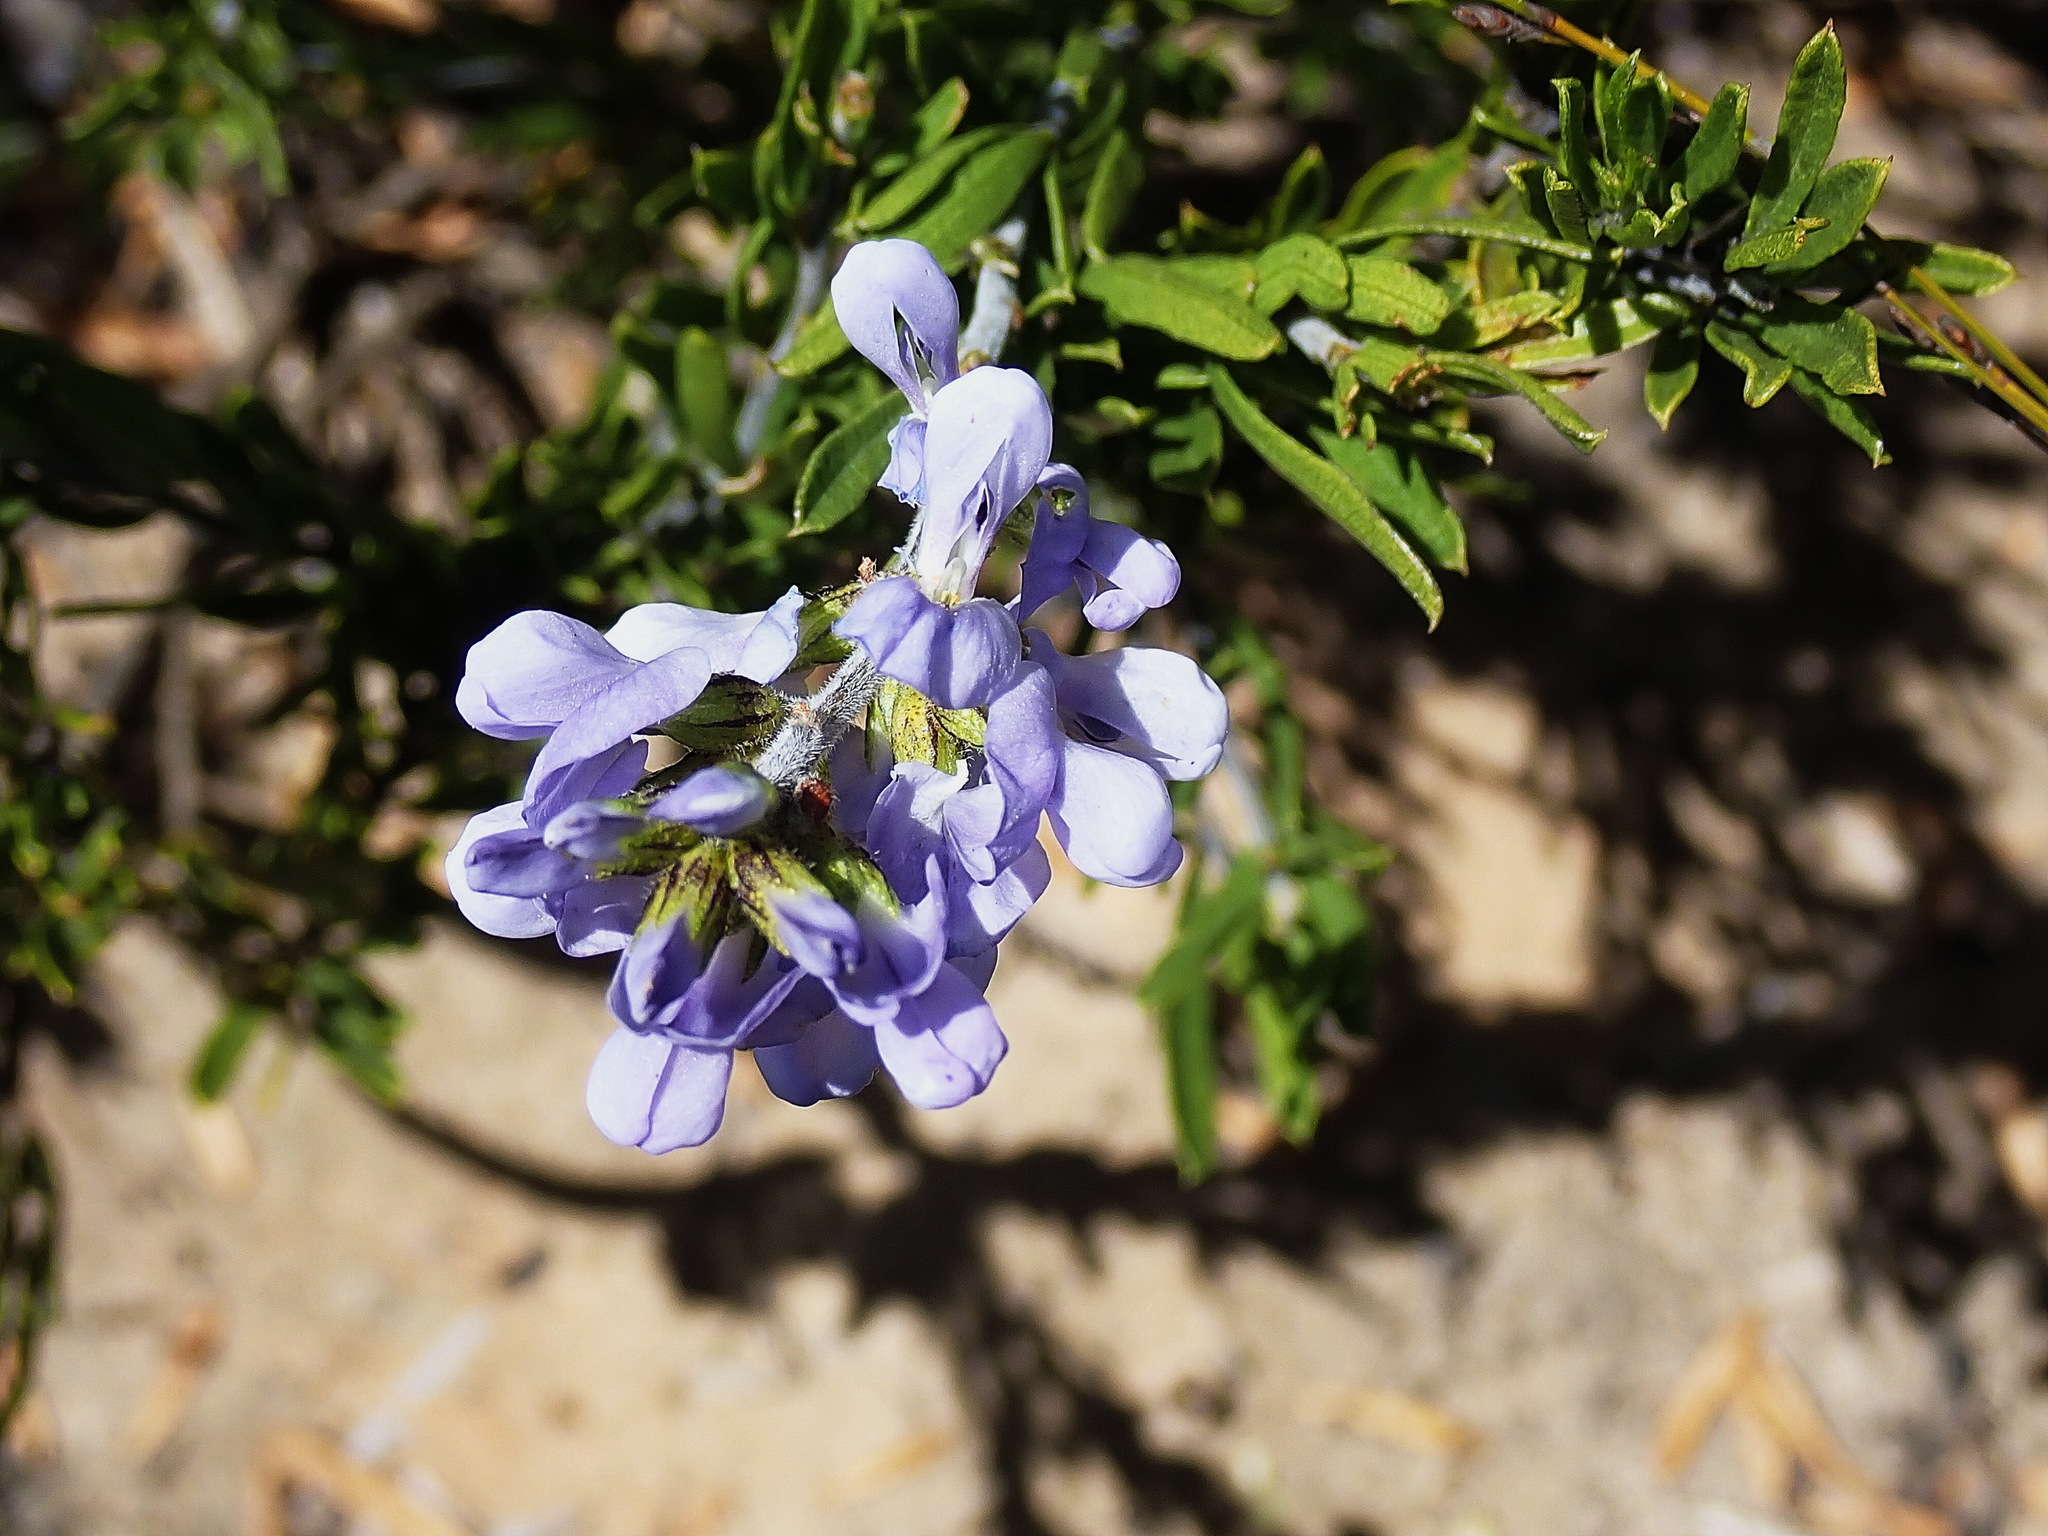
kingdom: Plantae
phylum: Tracheophyta
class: Magnoliopsida
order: Fabales
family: Fabaceae
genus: Psoralea
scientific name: Psoralea racemosa
